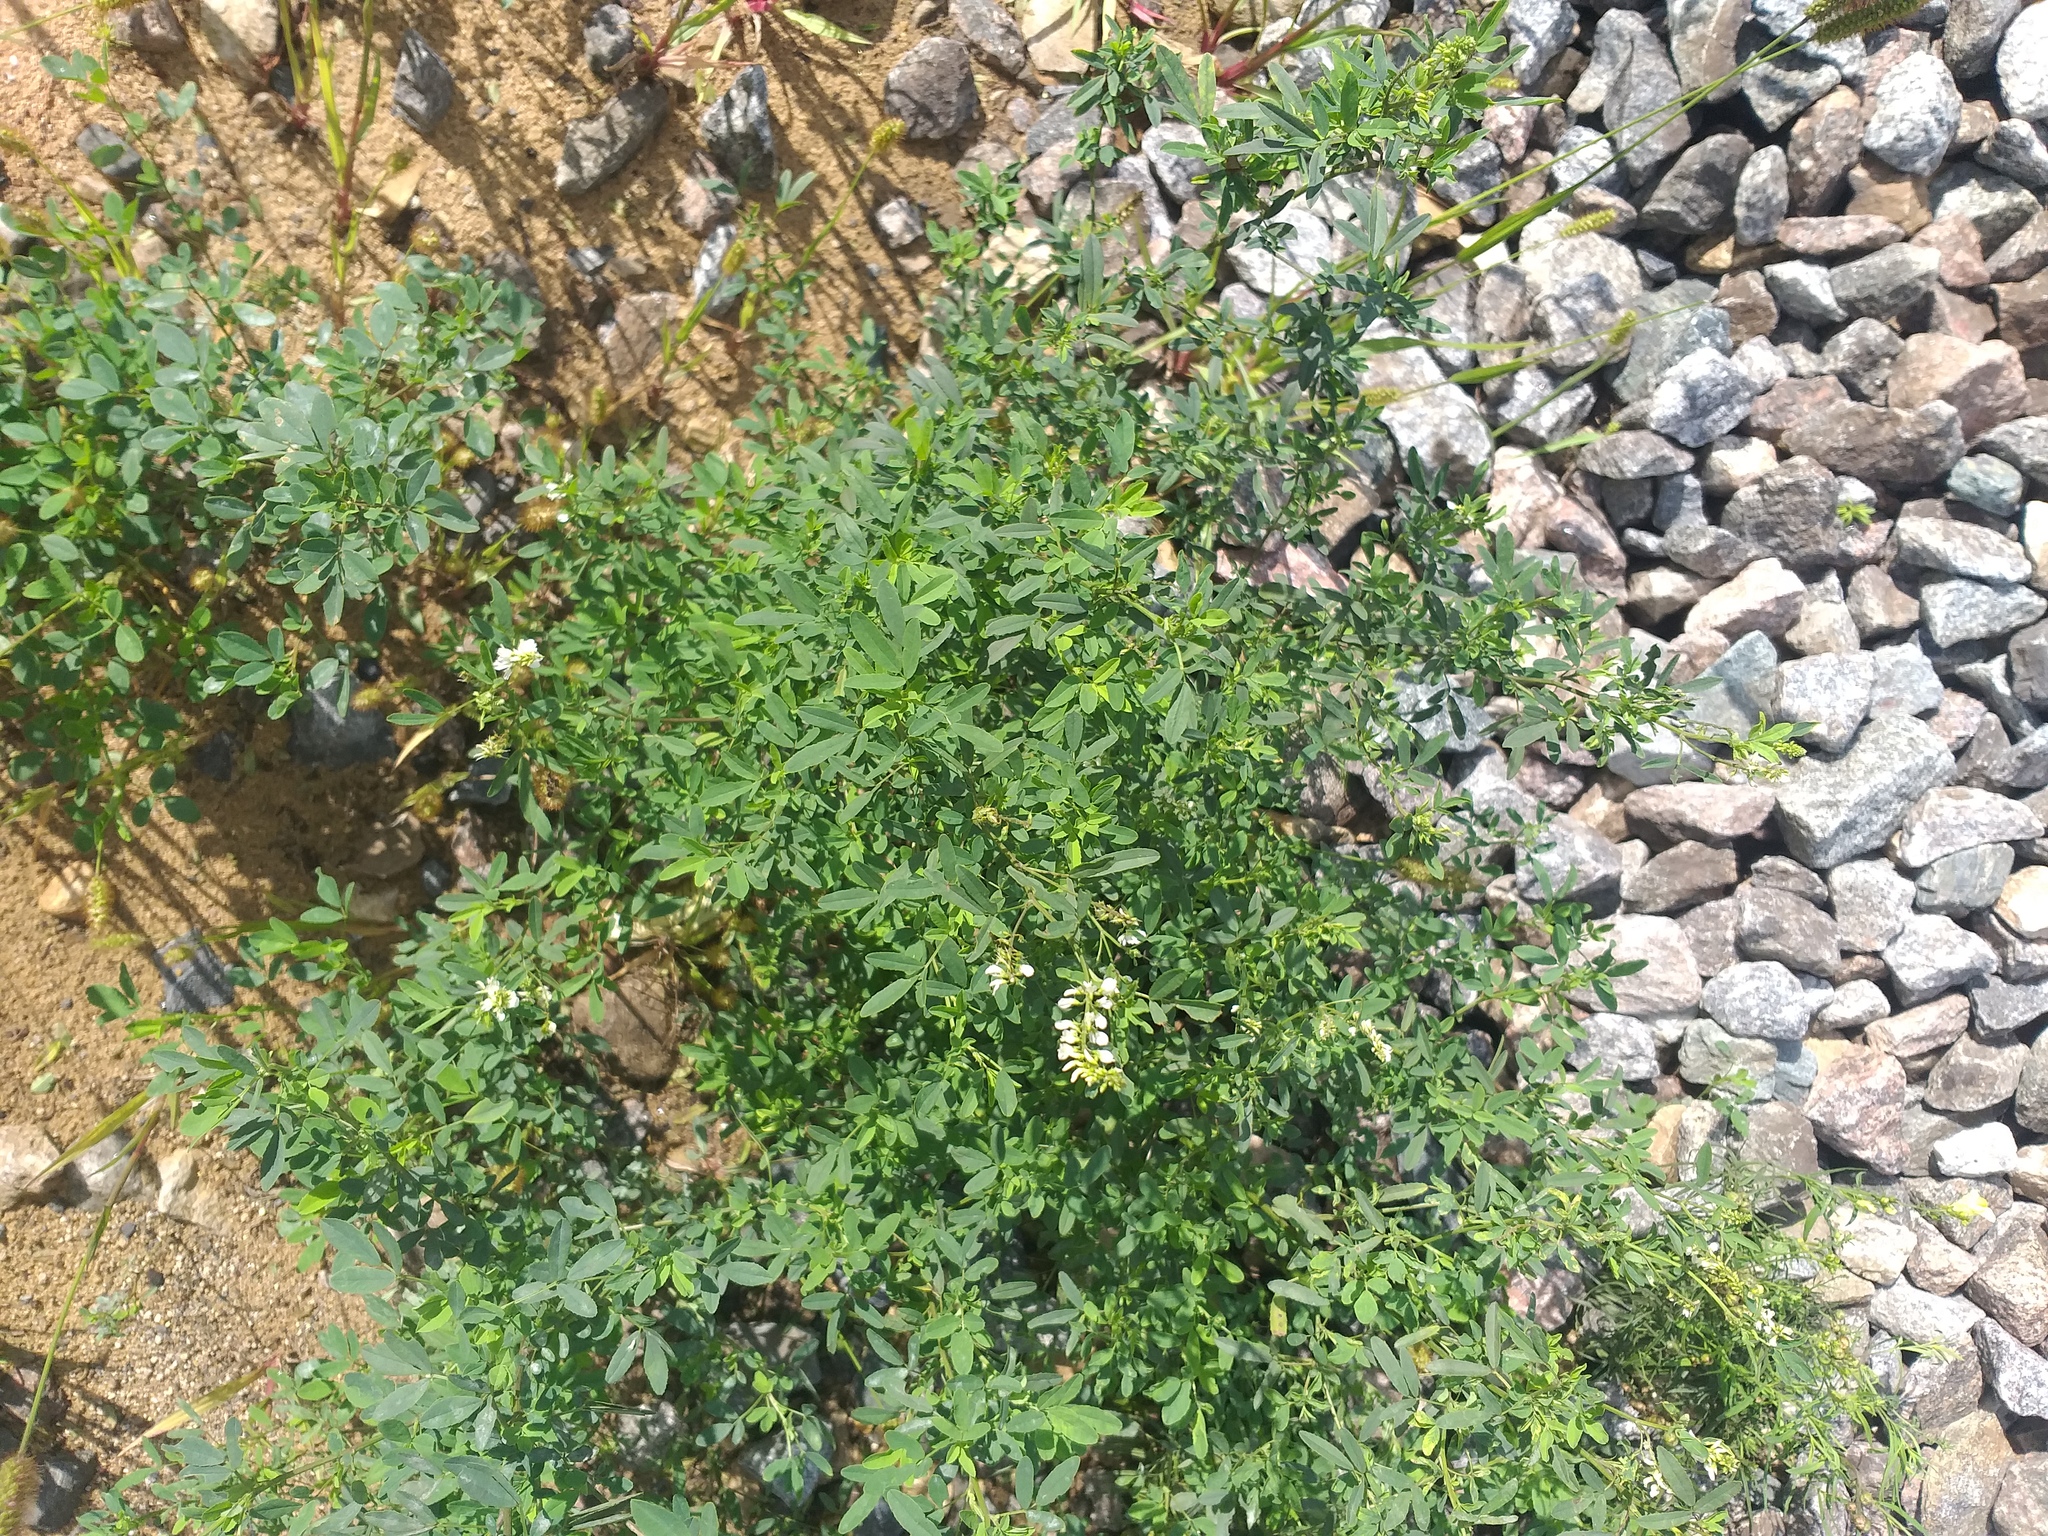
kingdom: Plantae
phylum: Tracheophyta
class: Magnoliopsida
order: Fabales
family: Fabaceae
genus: Melilotus
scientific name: Melilotus albus
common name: White melilot
